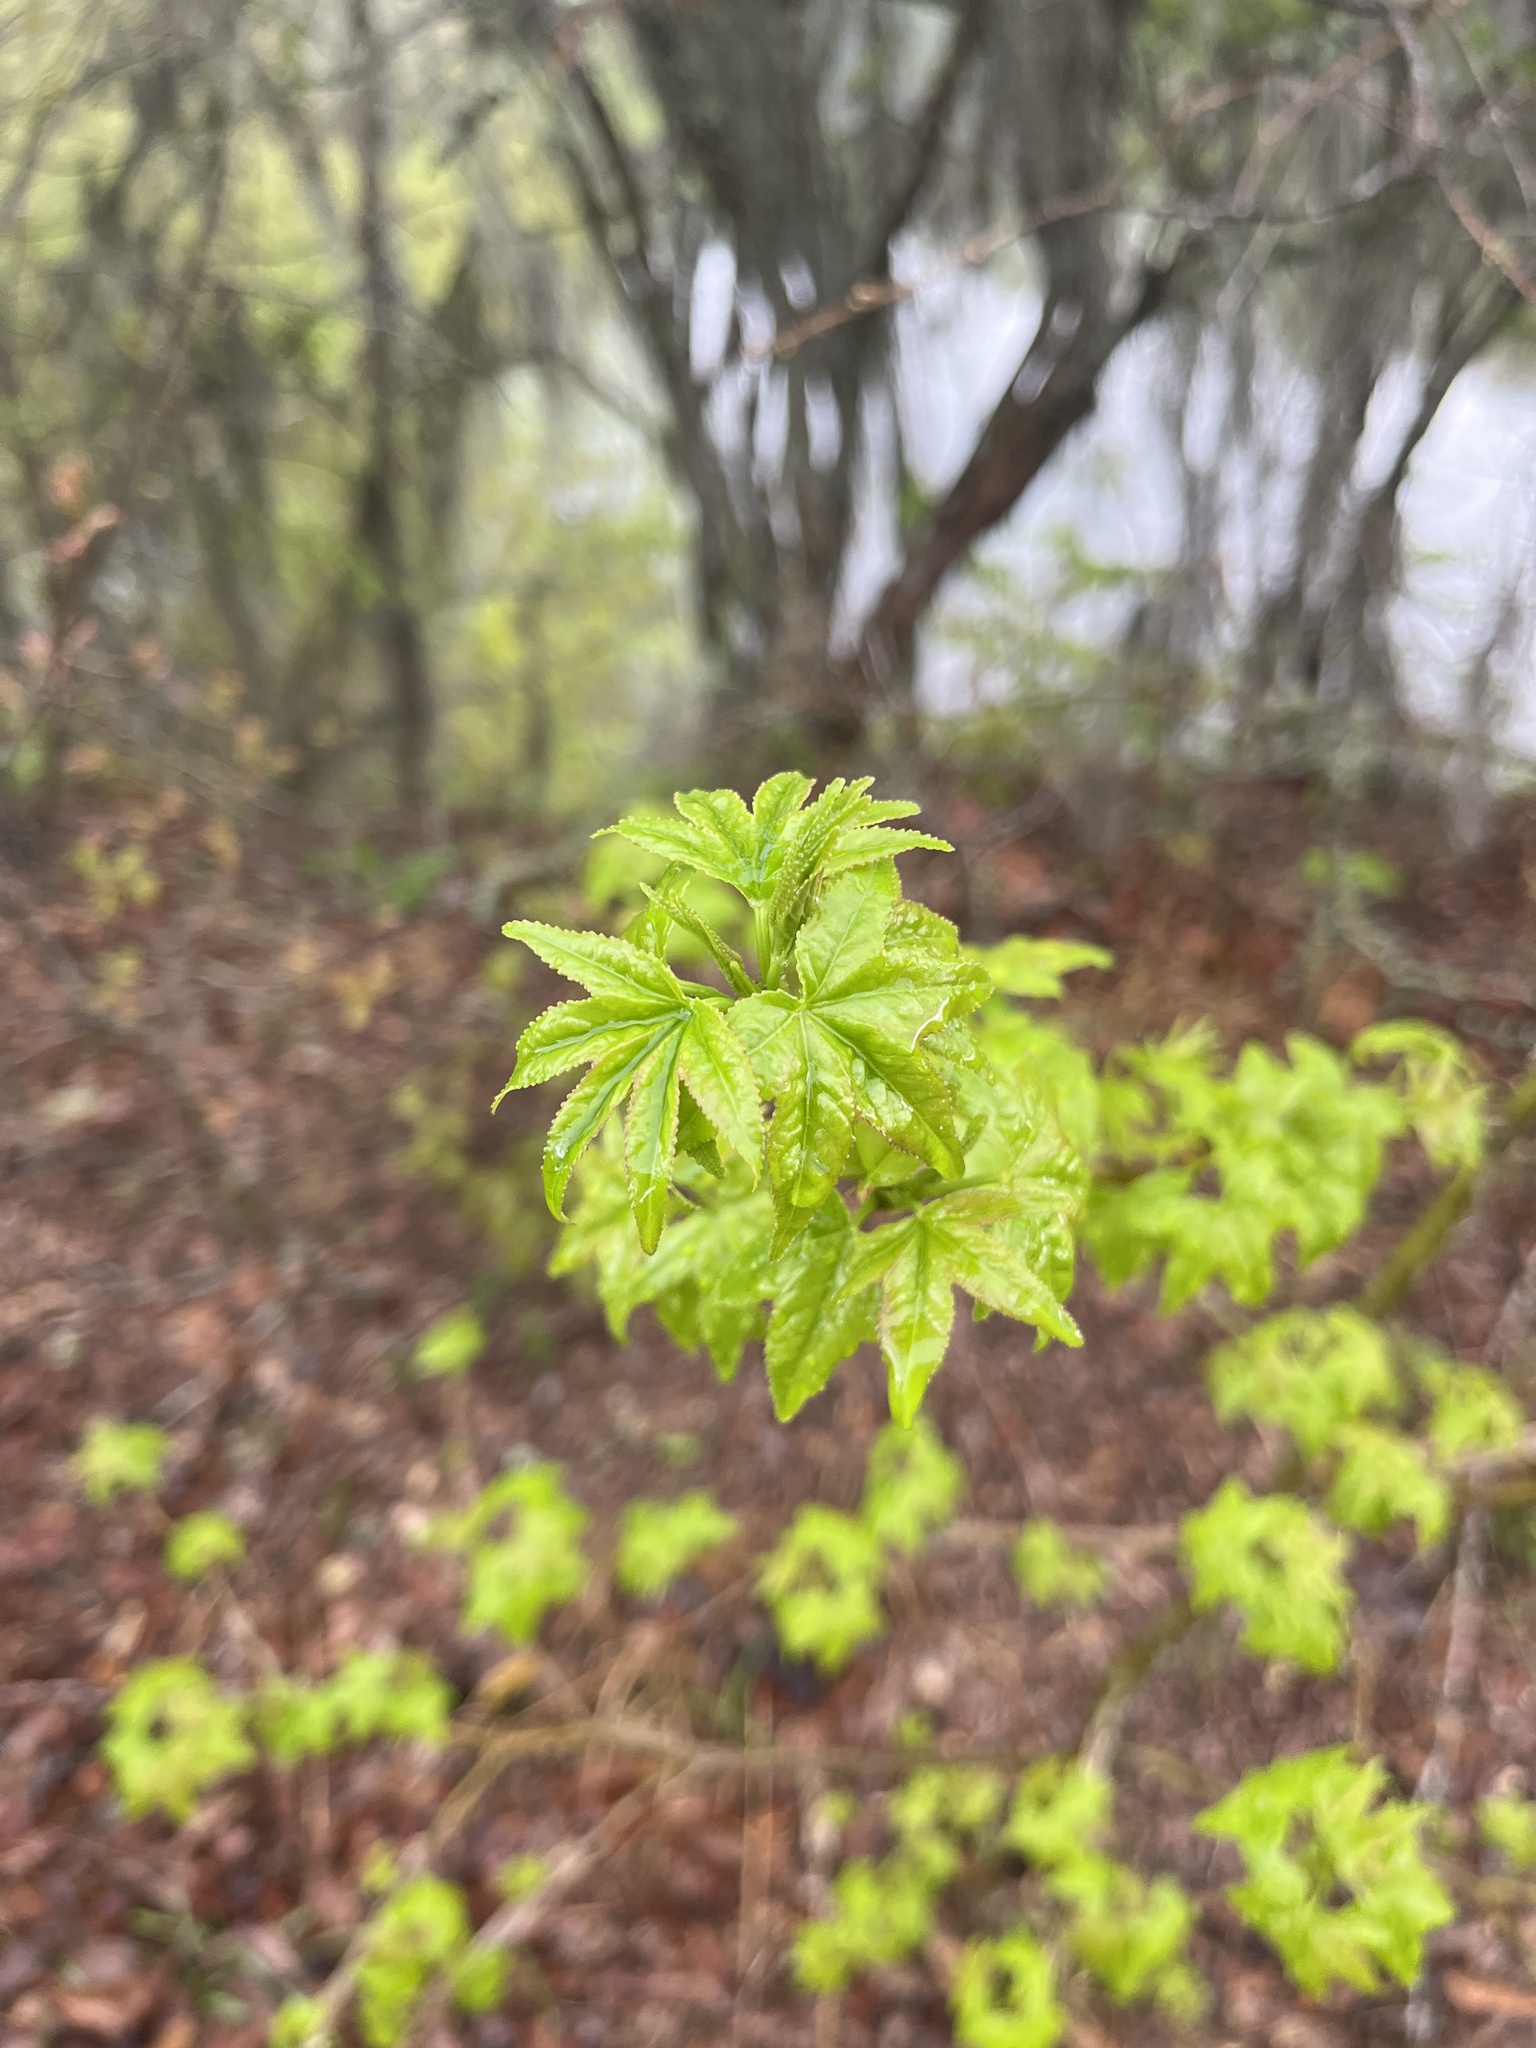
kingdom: Plantae
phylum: Tracheophyta
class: Magnoliopsida
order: Saxifragales
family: Altingiaceae
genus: Liquidambar
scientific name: Liquidambar styraciflua
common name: Sweet gum
